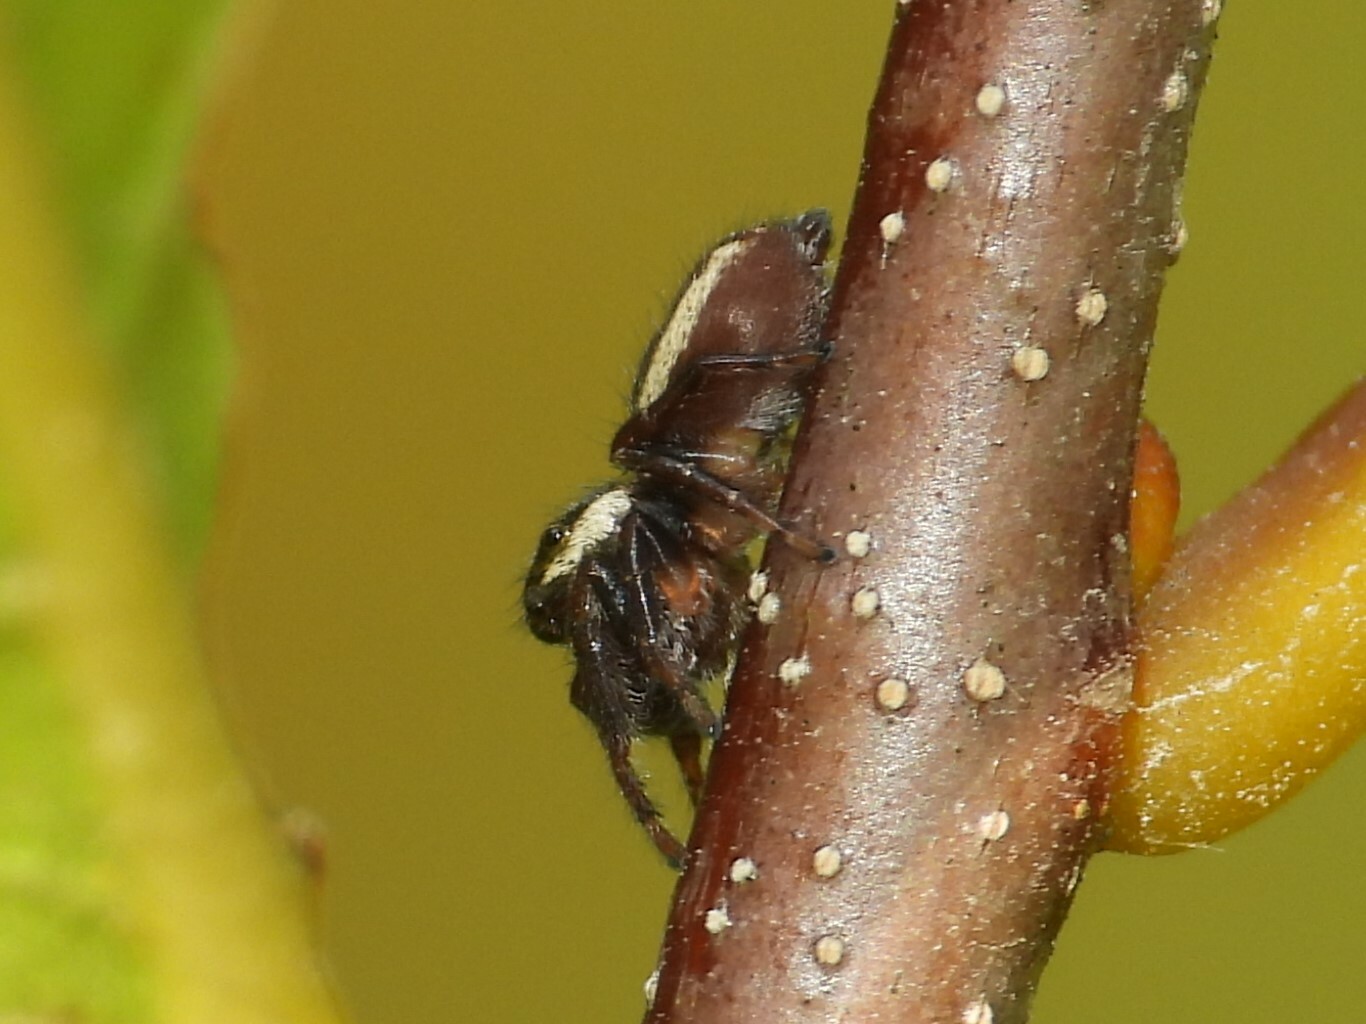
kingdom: Animalia
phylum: Arthropoda
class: Arachnida
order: Araneae
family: Salticidae
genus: Eris
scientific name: Eris militaris
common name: Bronze jumper
